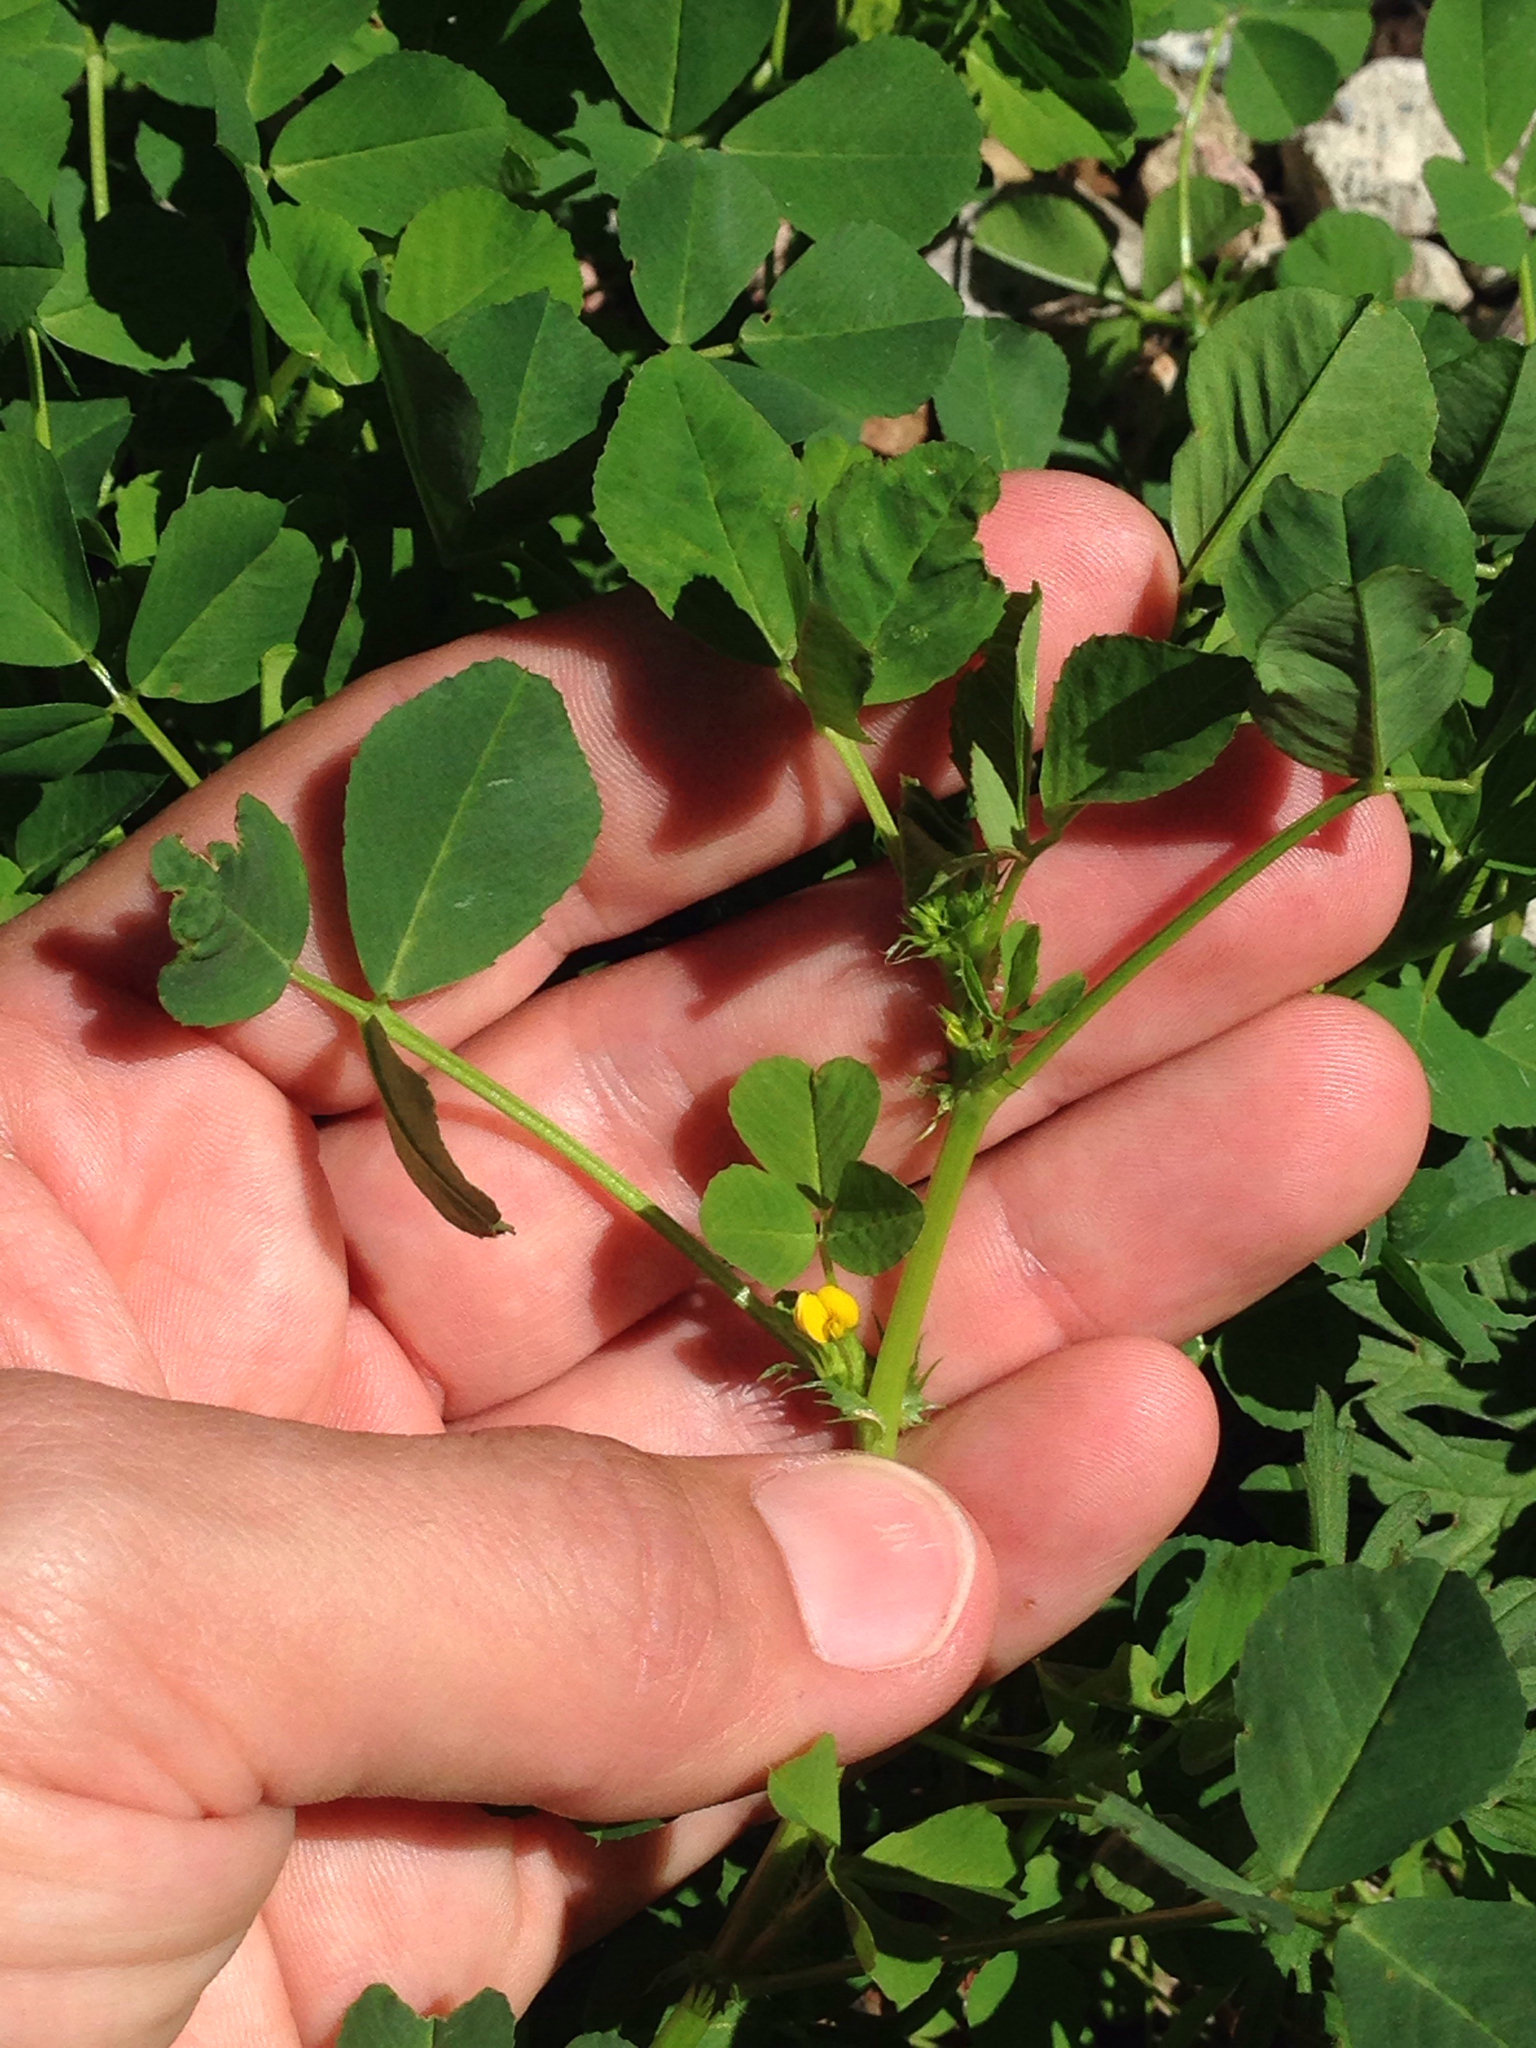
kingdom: Plantae
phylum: Tracheophyta
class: Magnoliopsida
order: Fabales
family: Fabaceae
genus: Medicago
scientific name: Medicago polymorpha
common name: Burclover
